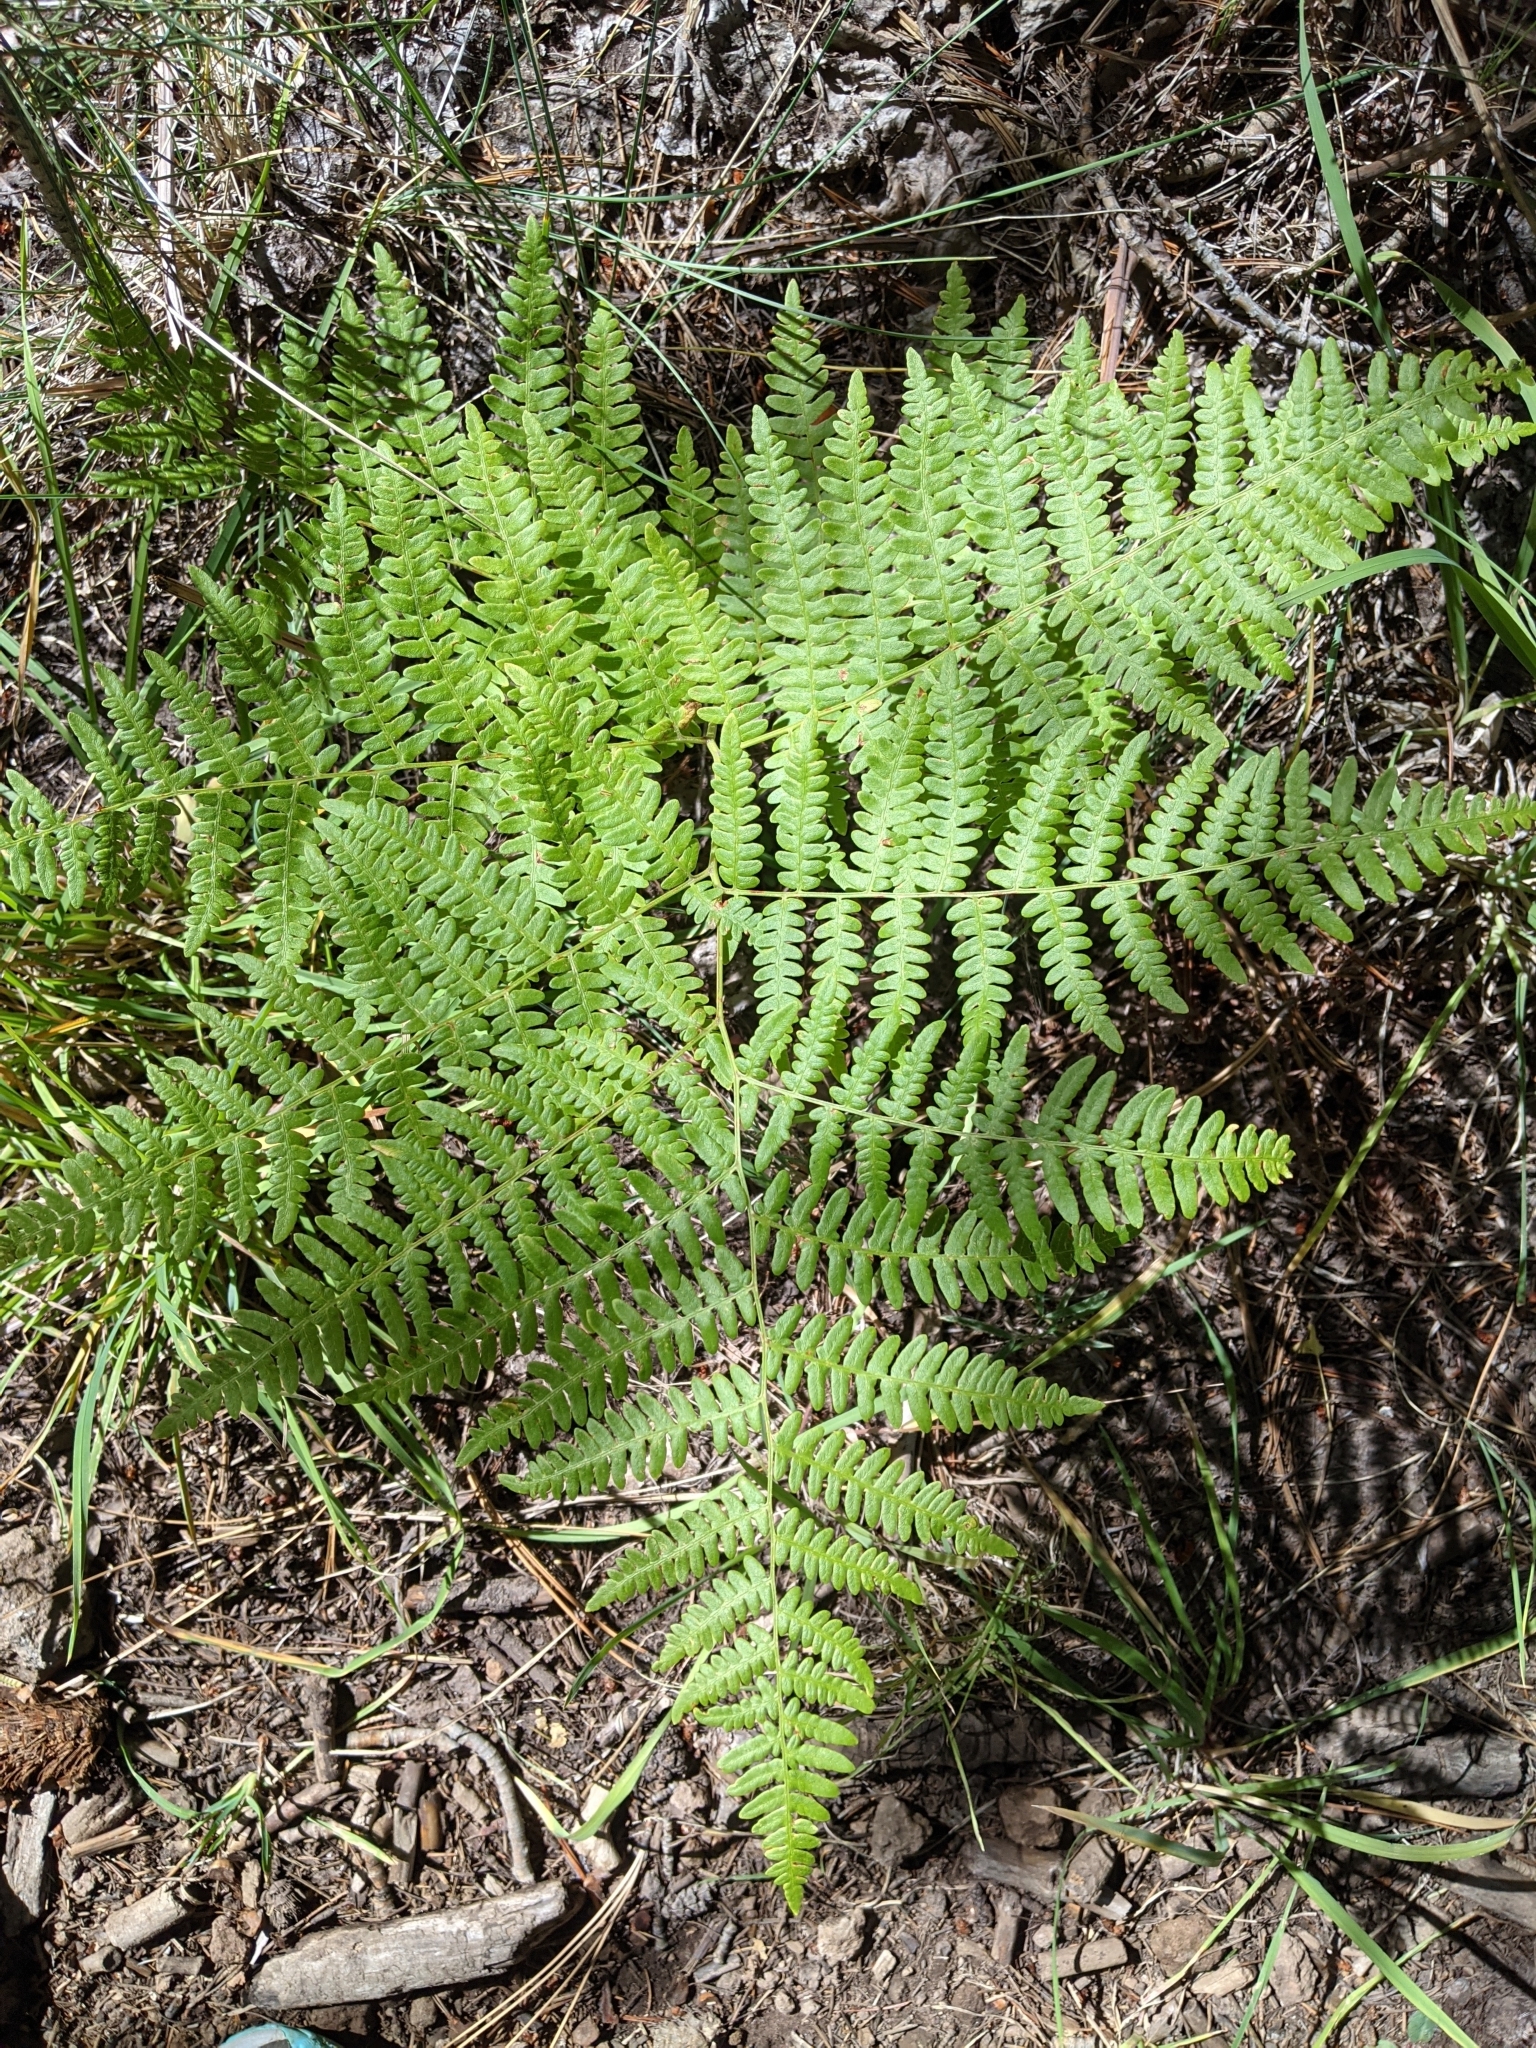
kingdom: Plantae
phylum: Tracheophyta
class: Polypodiopsida
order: Polypodiales
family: Dennstaedtiaceae
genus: Pteridium
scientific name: Pteridium aquilinum
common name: Bracken
